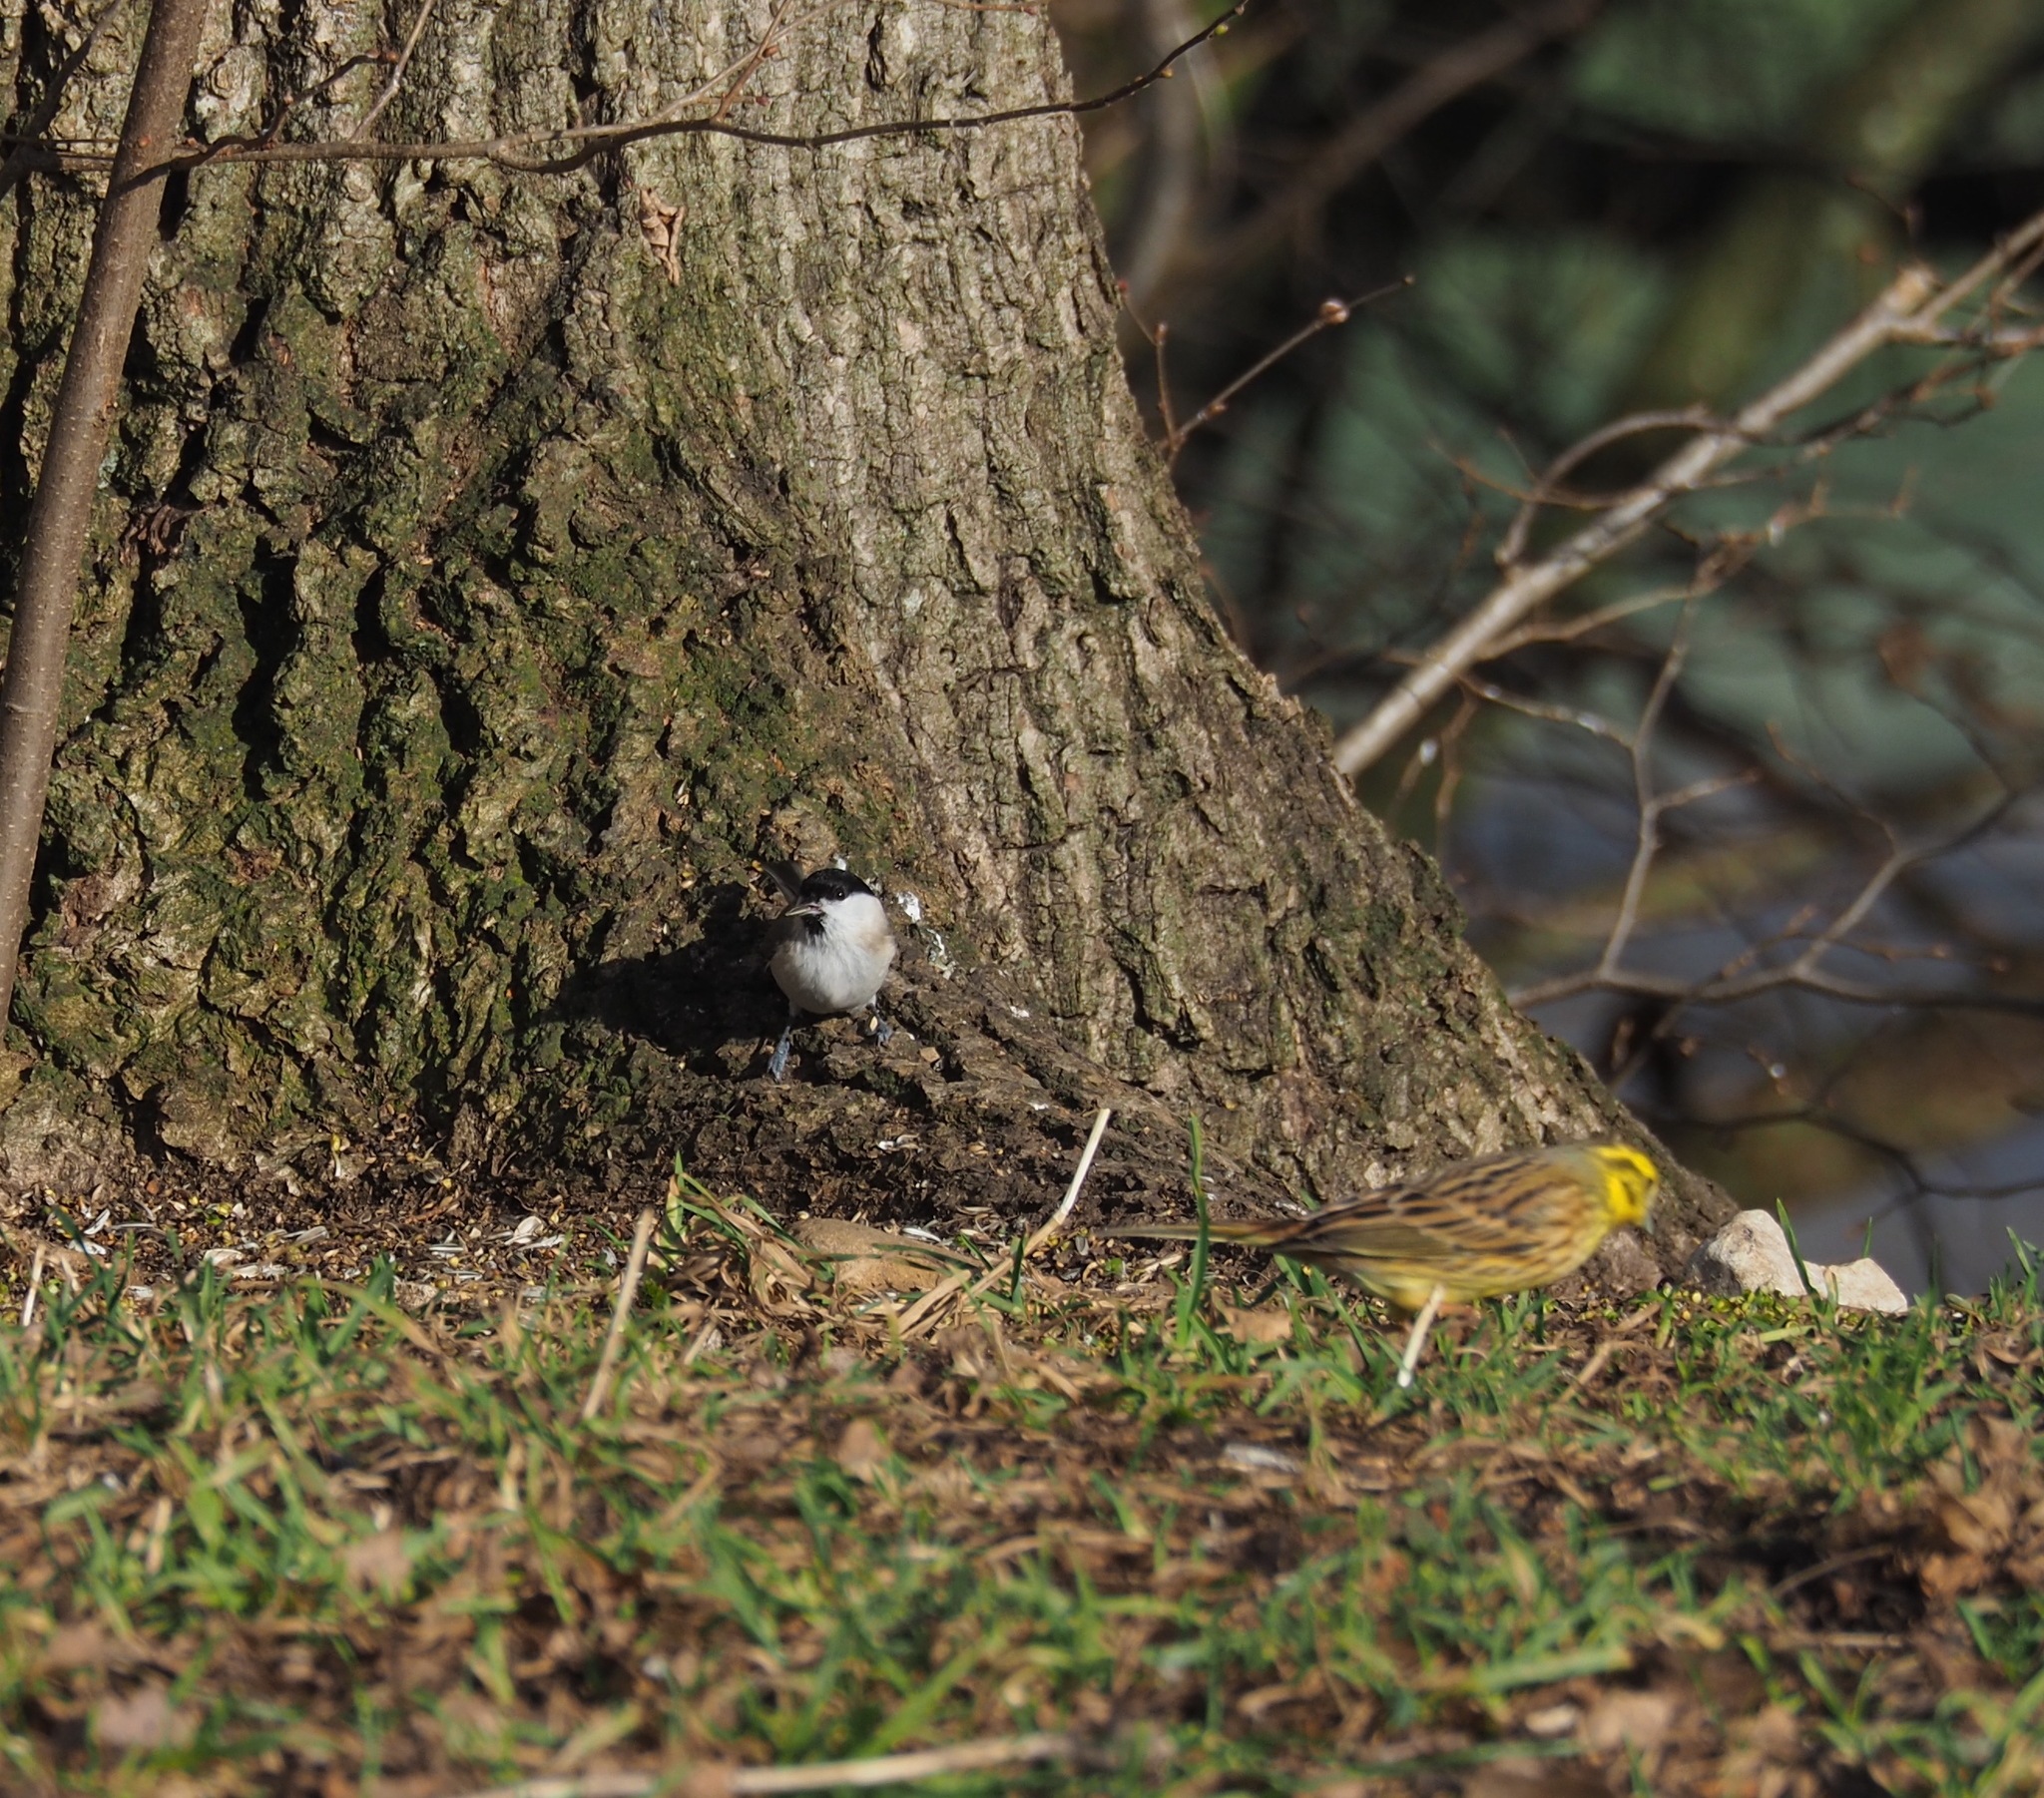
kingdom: Animalia
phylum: Chordata
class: Aves
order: Passeriformes
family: Paridae
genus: Poecile
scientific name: Poecile palustris
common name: Marsh tit
